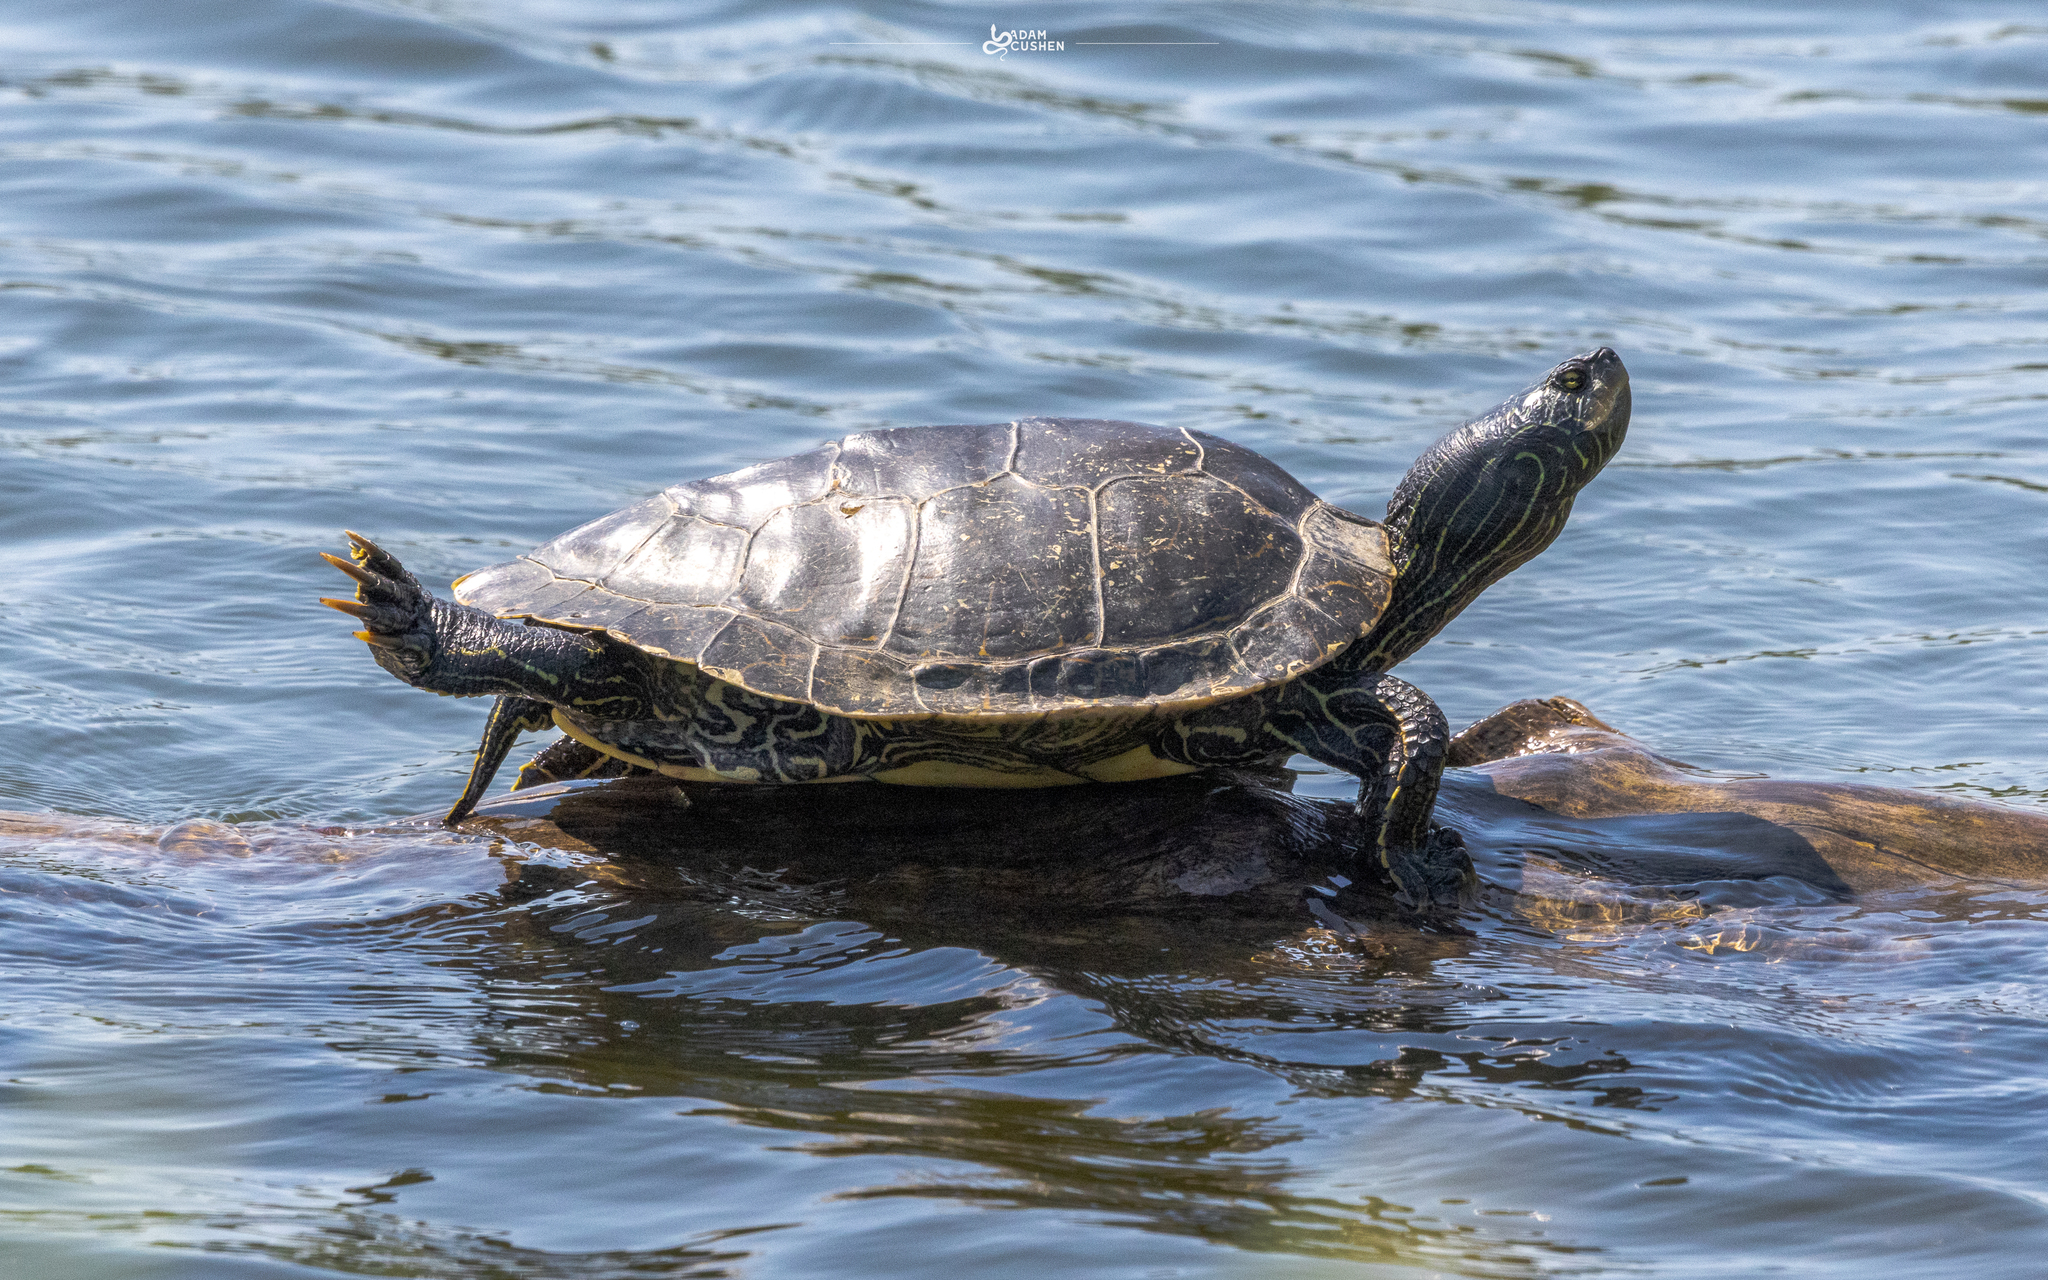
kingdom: Animalia
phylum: Chordata
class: Testudines
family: Emydidae
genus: Graptemys
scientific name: Graptemys geographica
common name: Common map turtle
